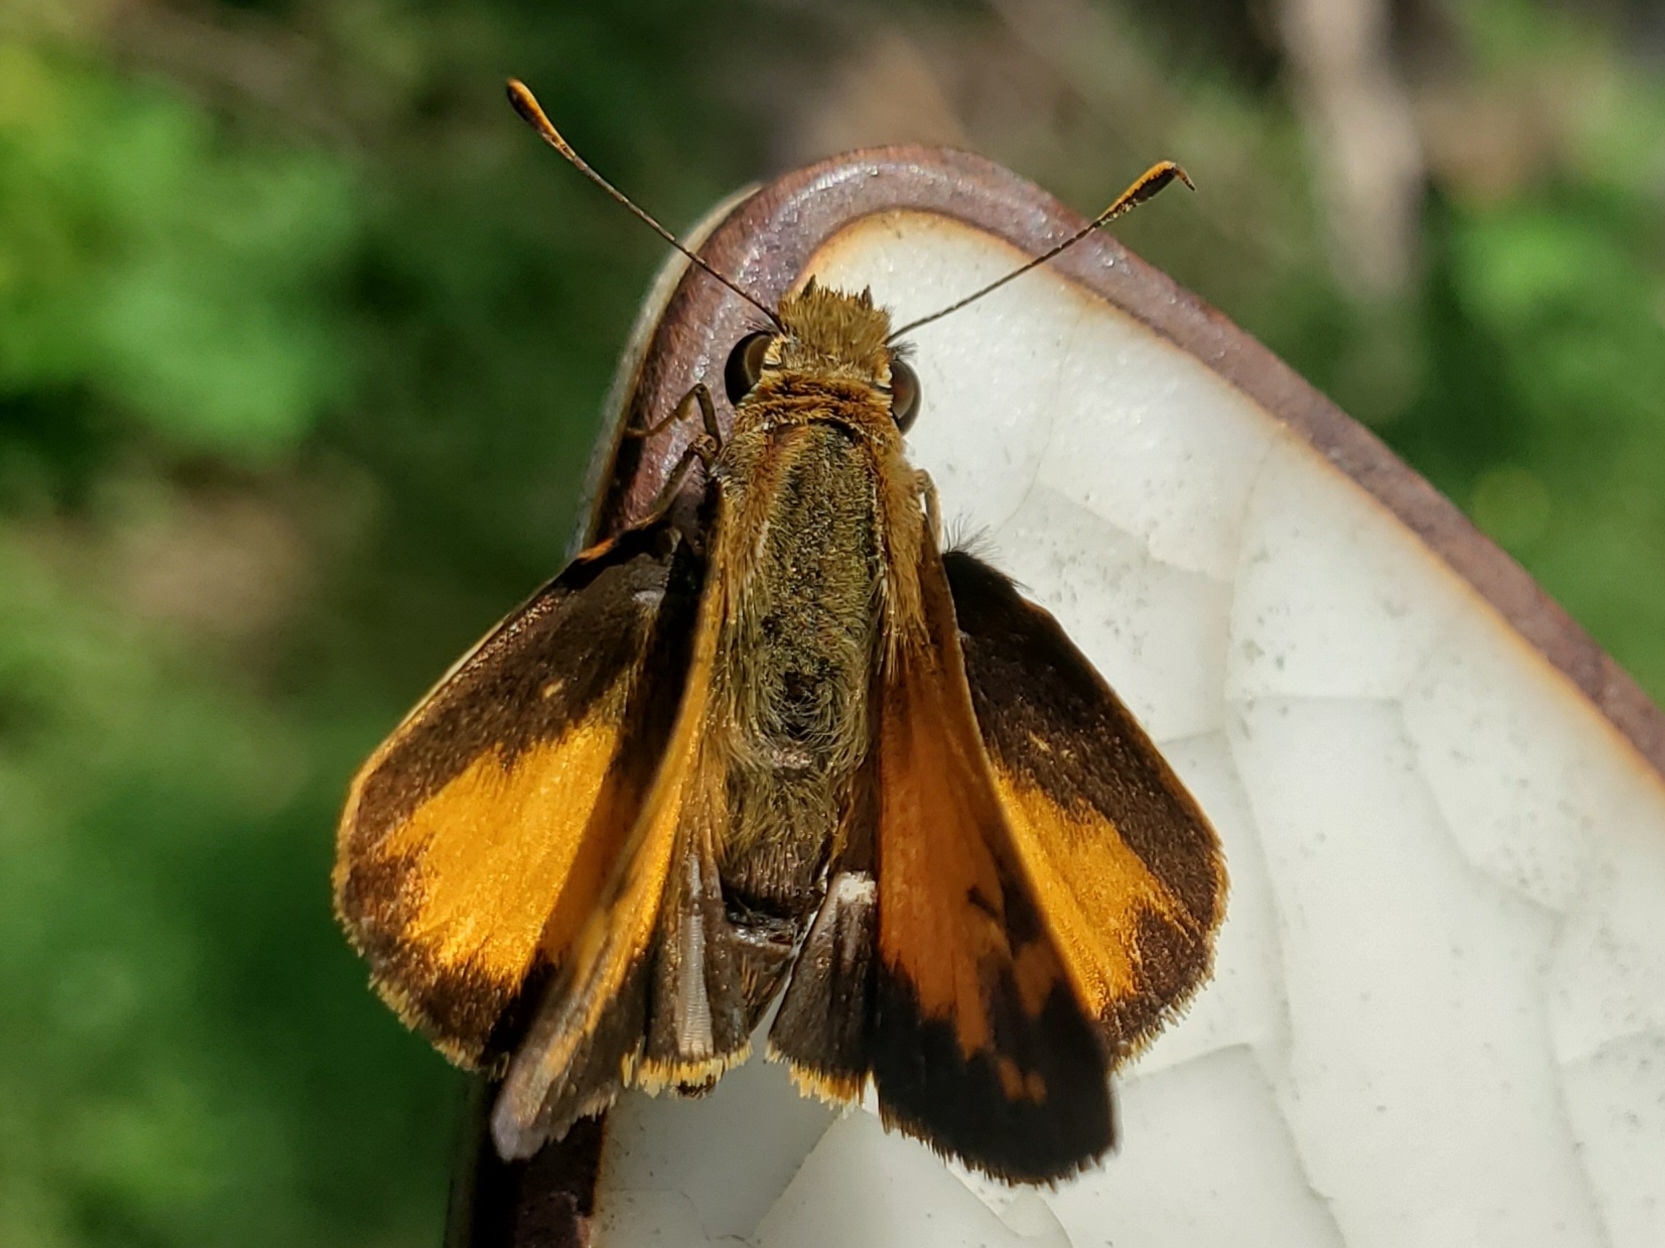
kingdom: Animalia
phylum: Arthropoda
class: Insecta
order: Lepidoptera
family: Hesperiidae
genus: Lon
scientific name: Lon zabulon
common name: Zabulon skipper
